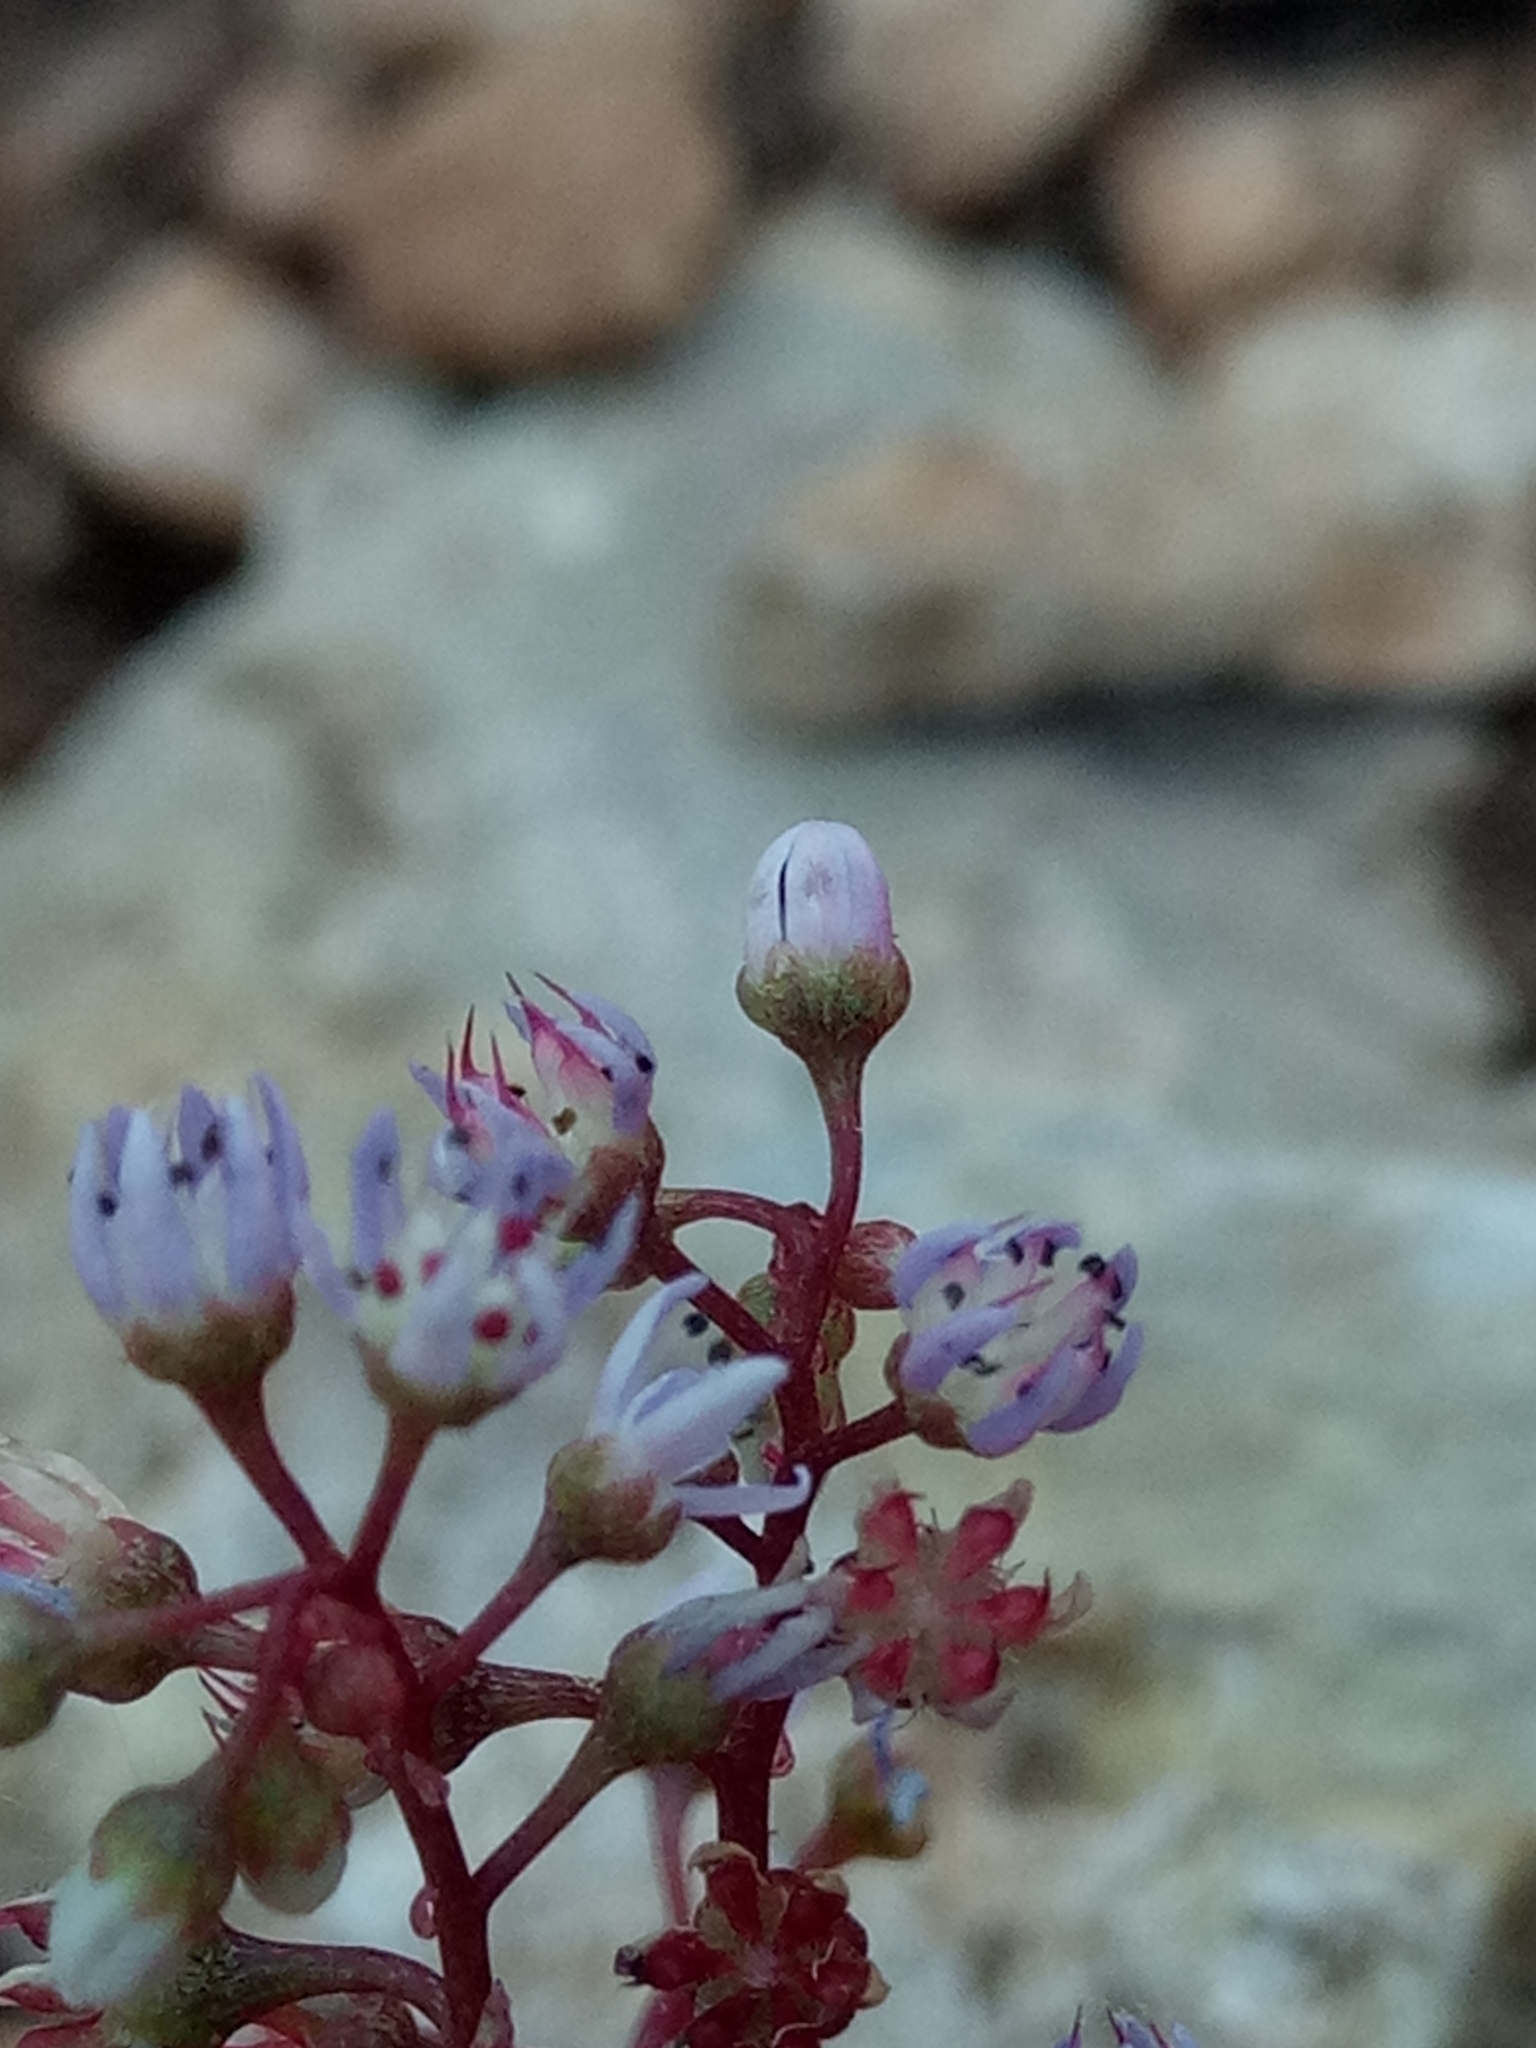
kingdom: Plantae
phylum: Tracheophyta
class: Magnoliopsida
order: Saxifragales
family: Crassulaceae
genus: Sedum
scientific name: Sedum caeruleum
